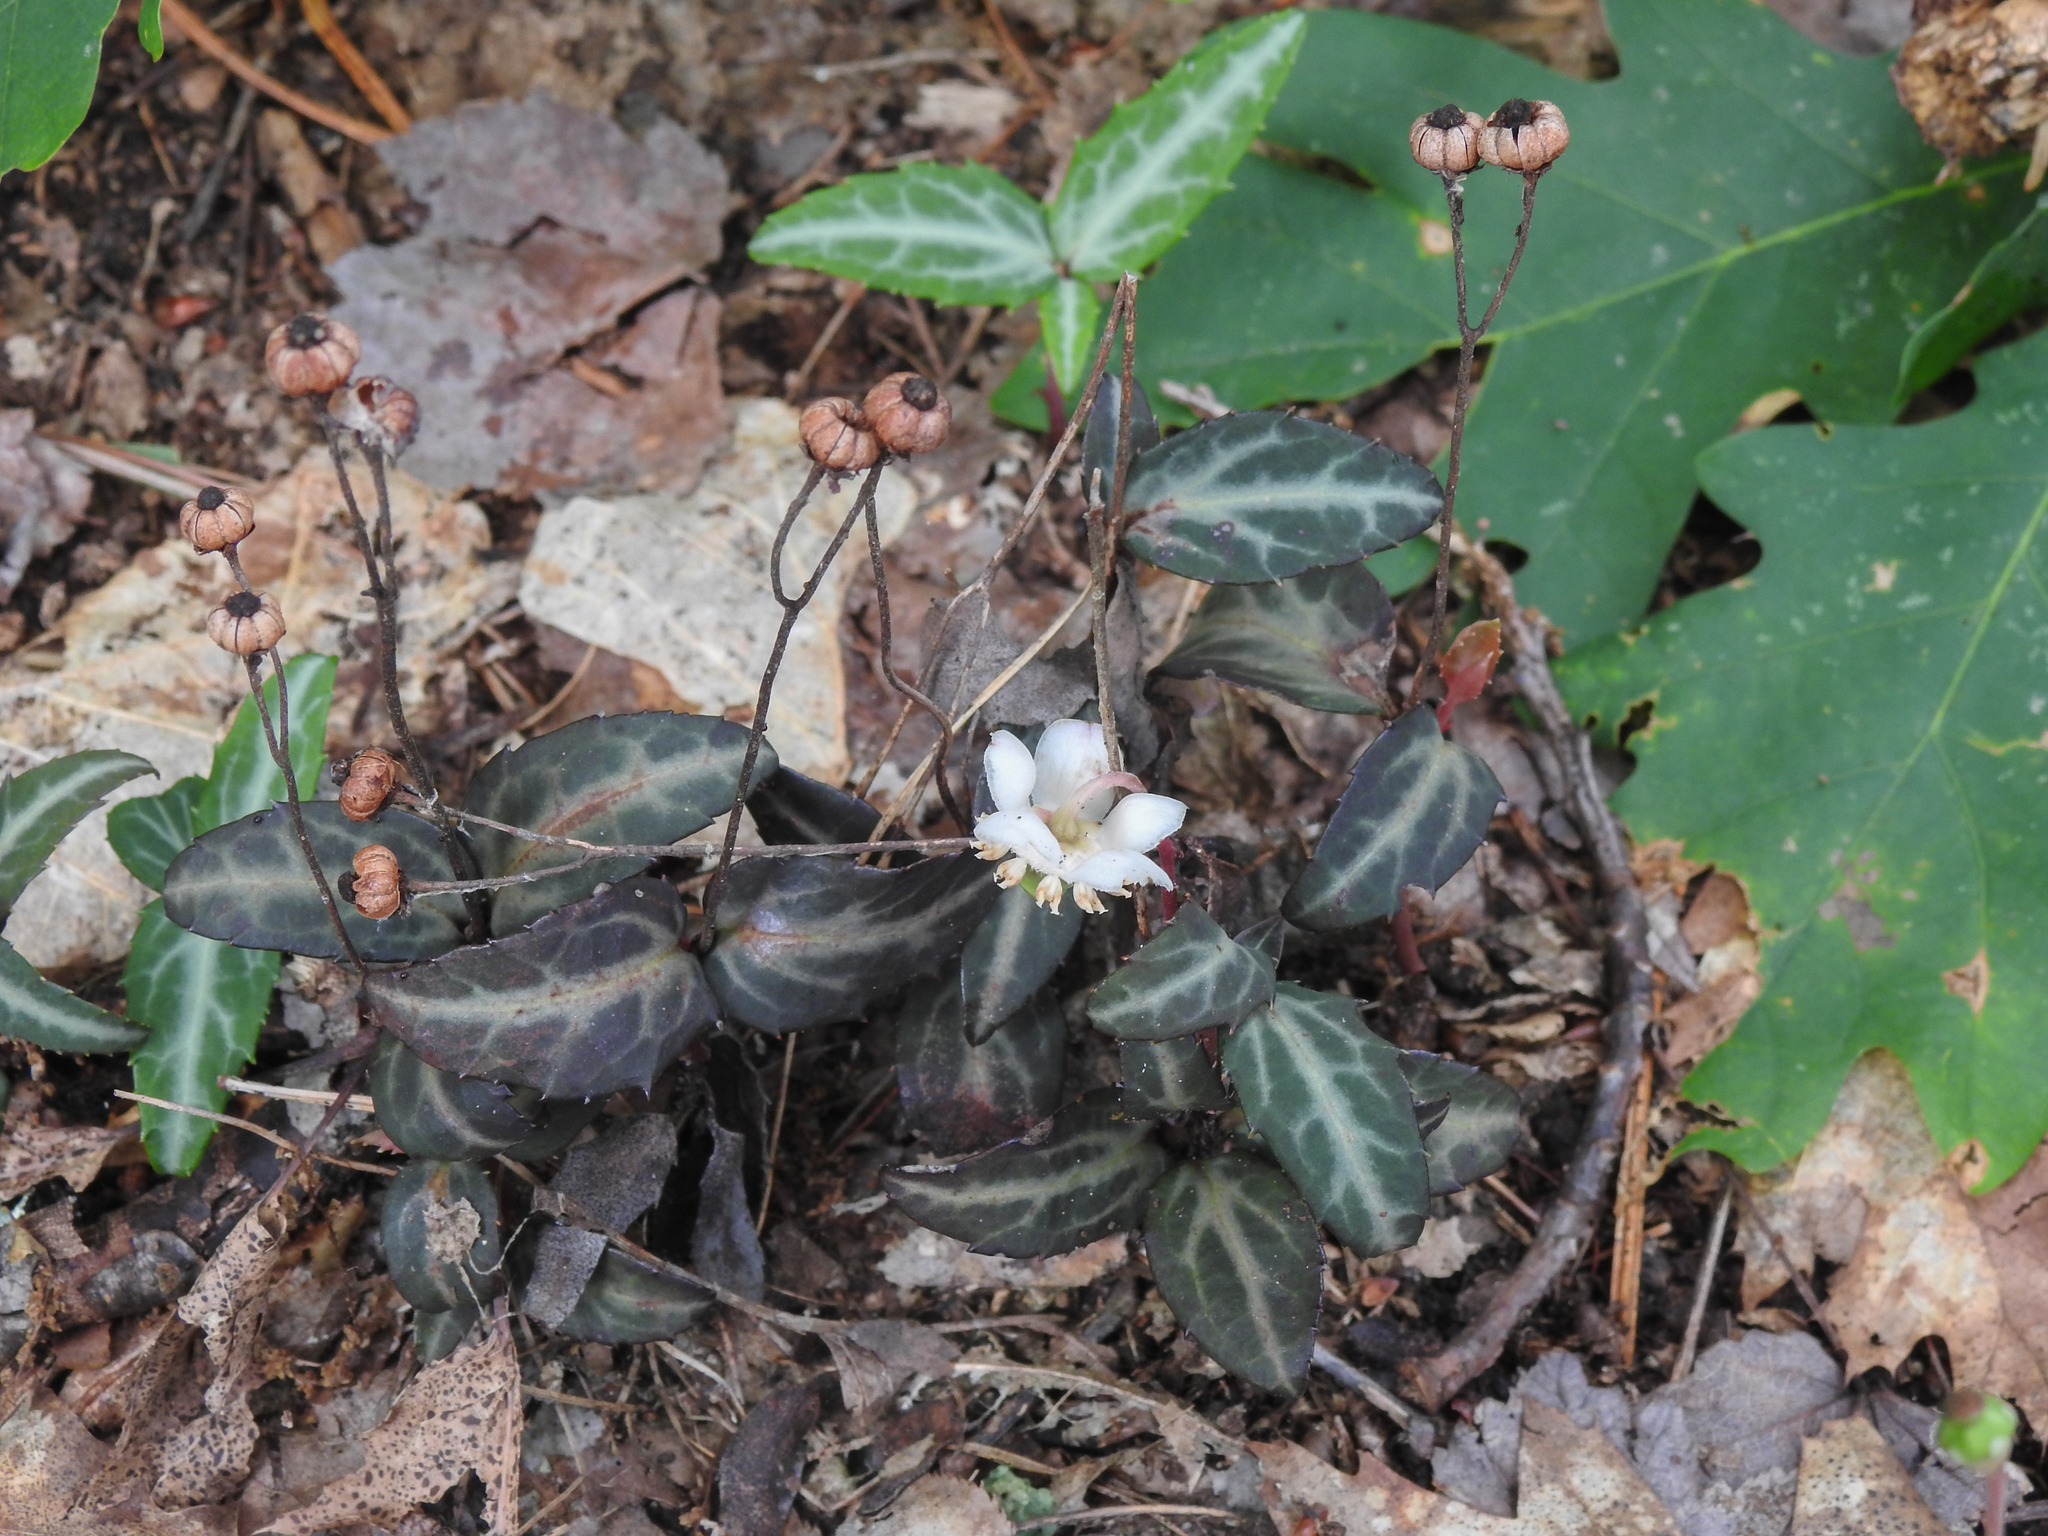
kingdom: Plantae
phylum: Tracheophyta
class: Magnoliopsida
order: Ericales
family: Ericaceae
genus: Chimaphila
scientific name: Chimaphila maculata
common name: Spotted pipsissewa
